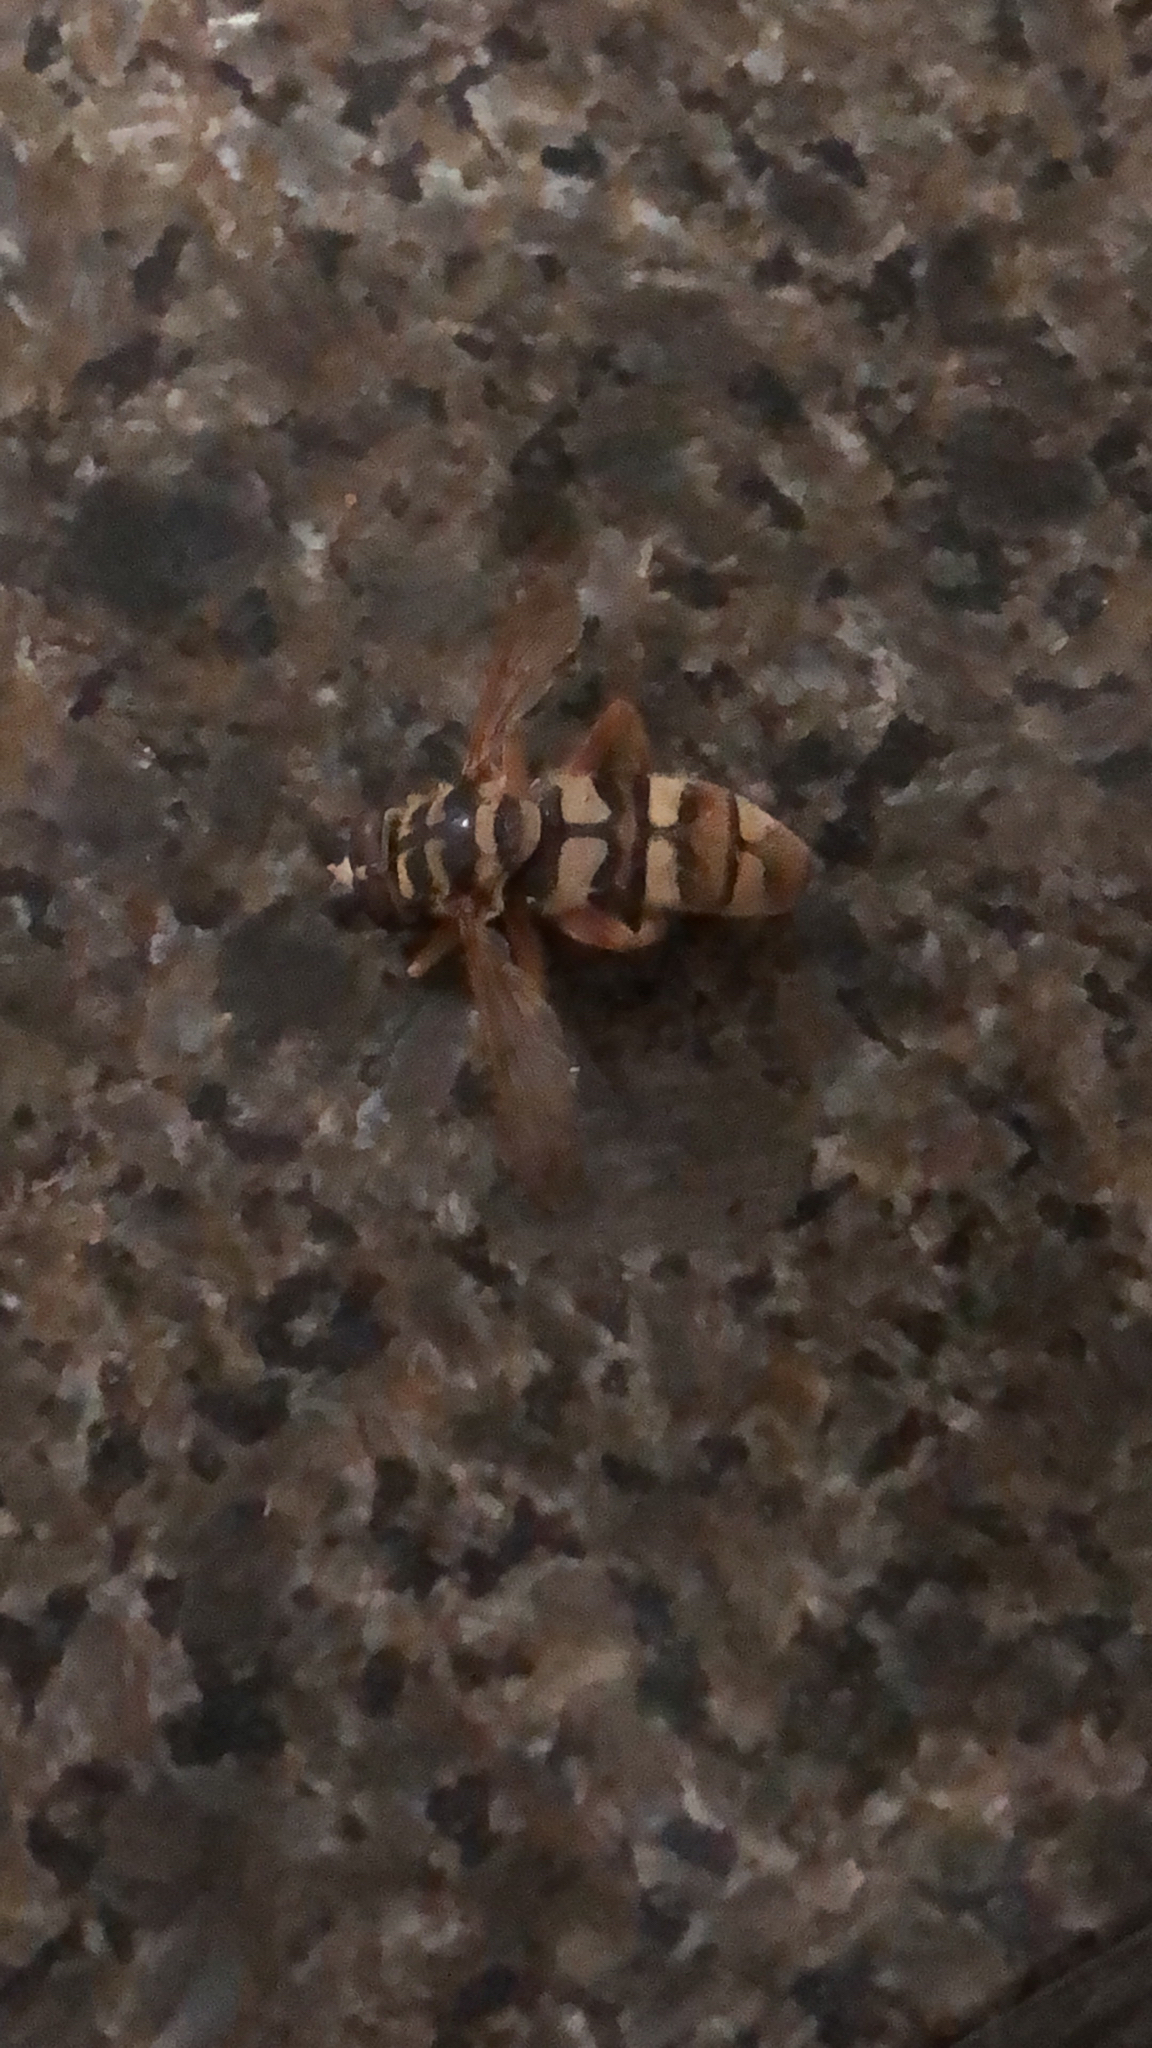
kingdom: Animalia
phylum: Arthropoda
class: Insecta
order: Diptera
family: Syrphidae
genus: Milesia
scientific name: Milesia virginiensis
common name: Virginia giant
